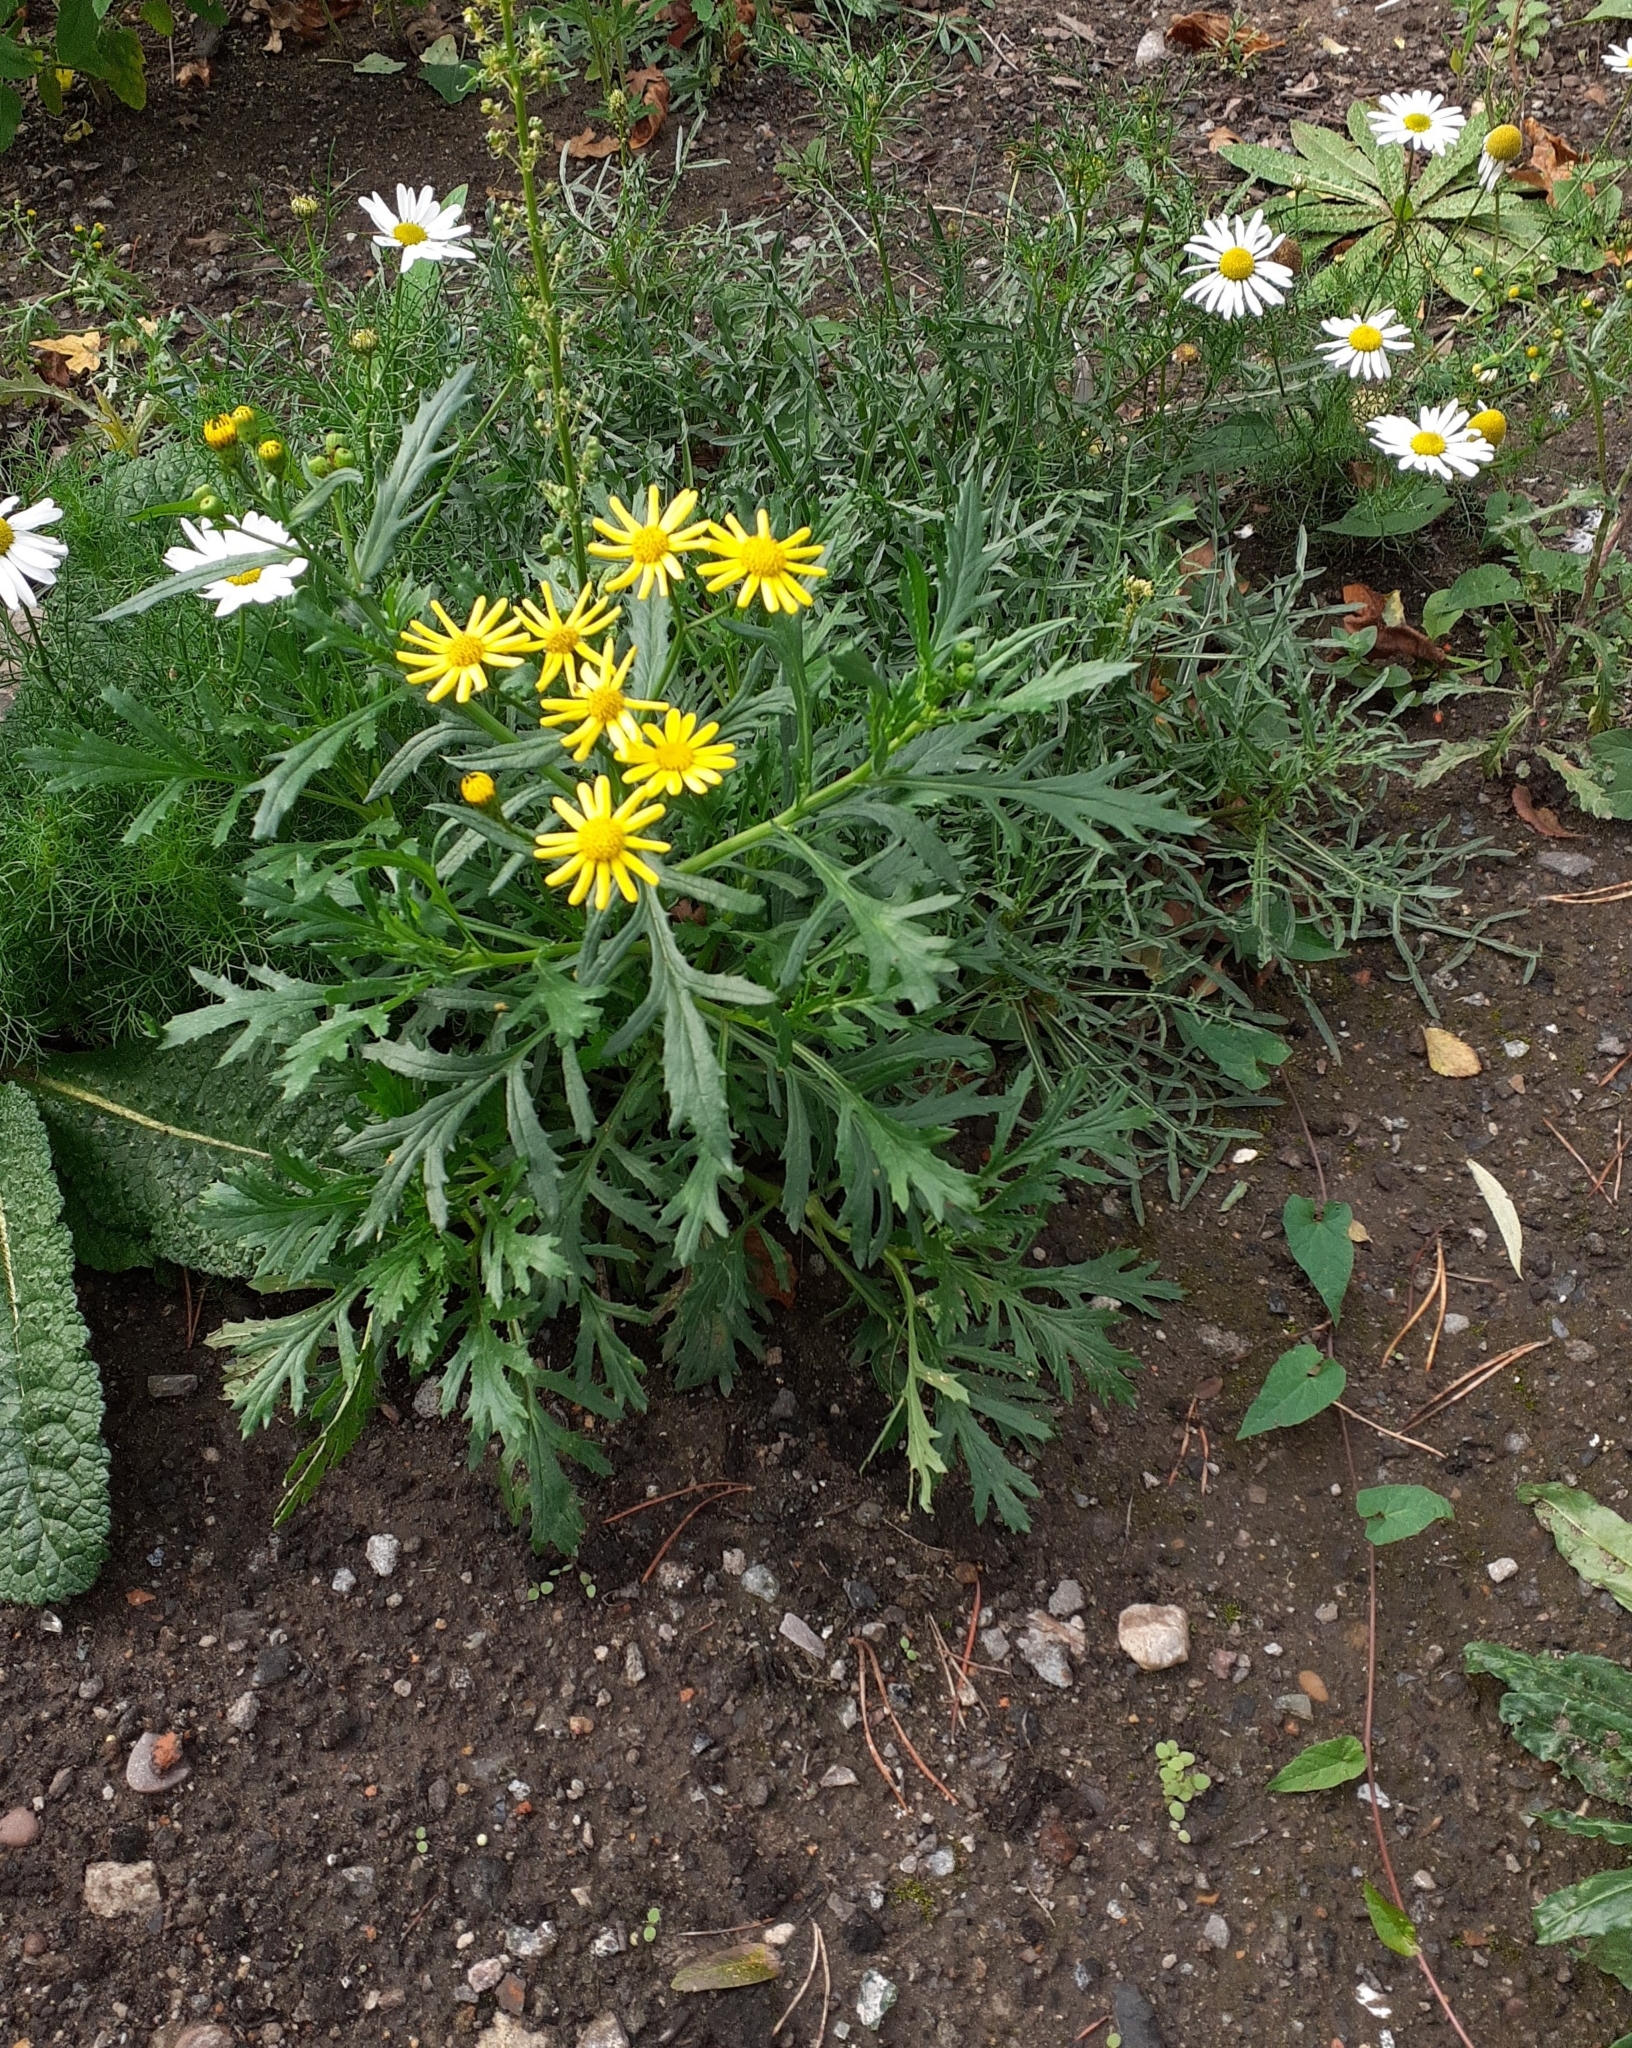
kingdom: Plantae
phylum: Tracheophyta
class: Magnoliopsida
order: Asterales
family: Asteraceae
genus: Senecio
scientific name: Senecio squalidus
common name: Oxford ragwort
